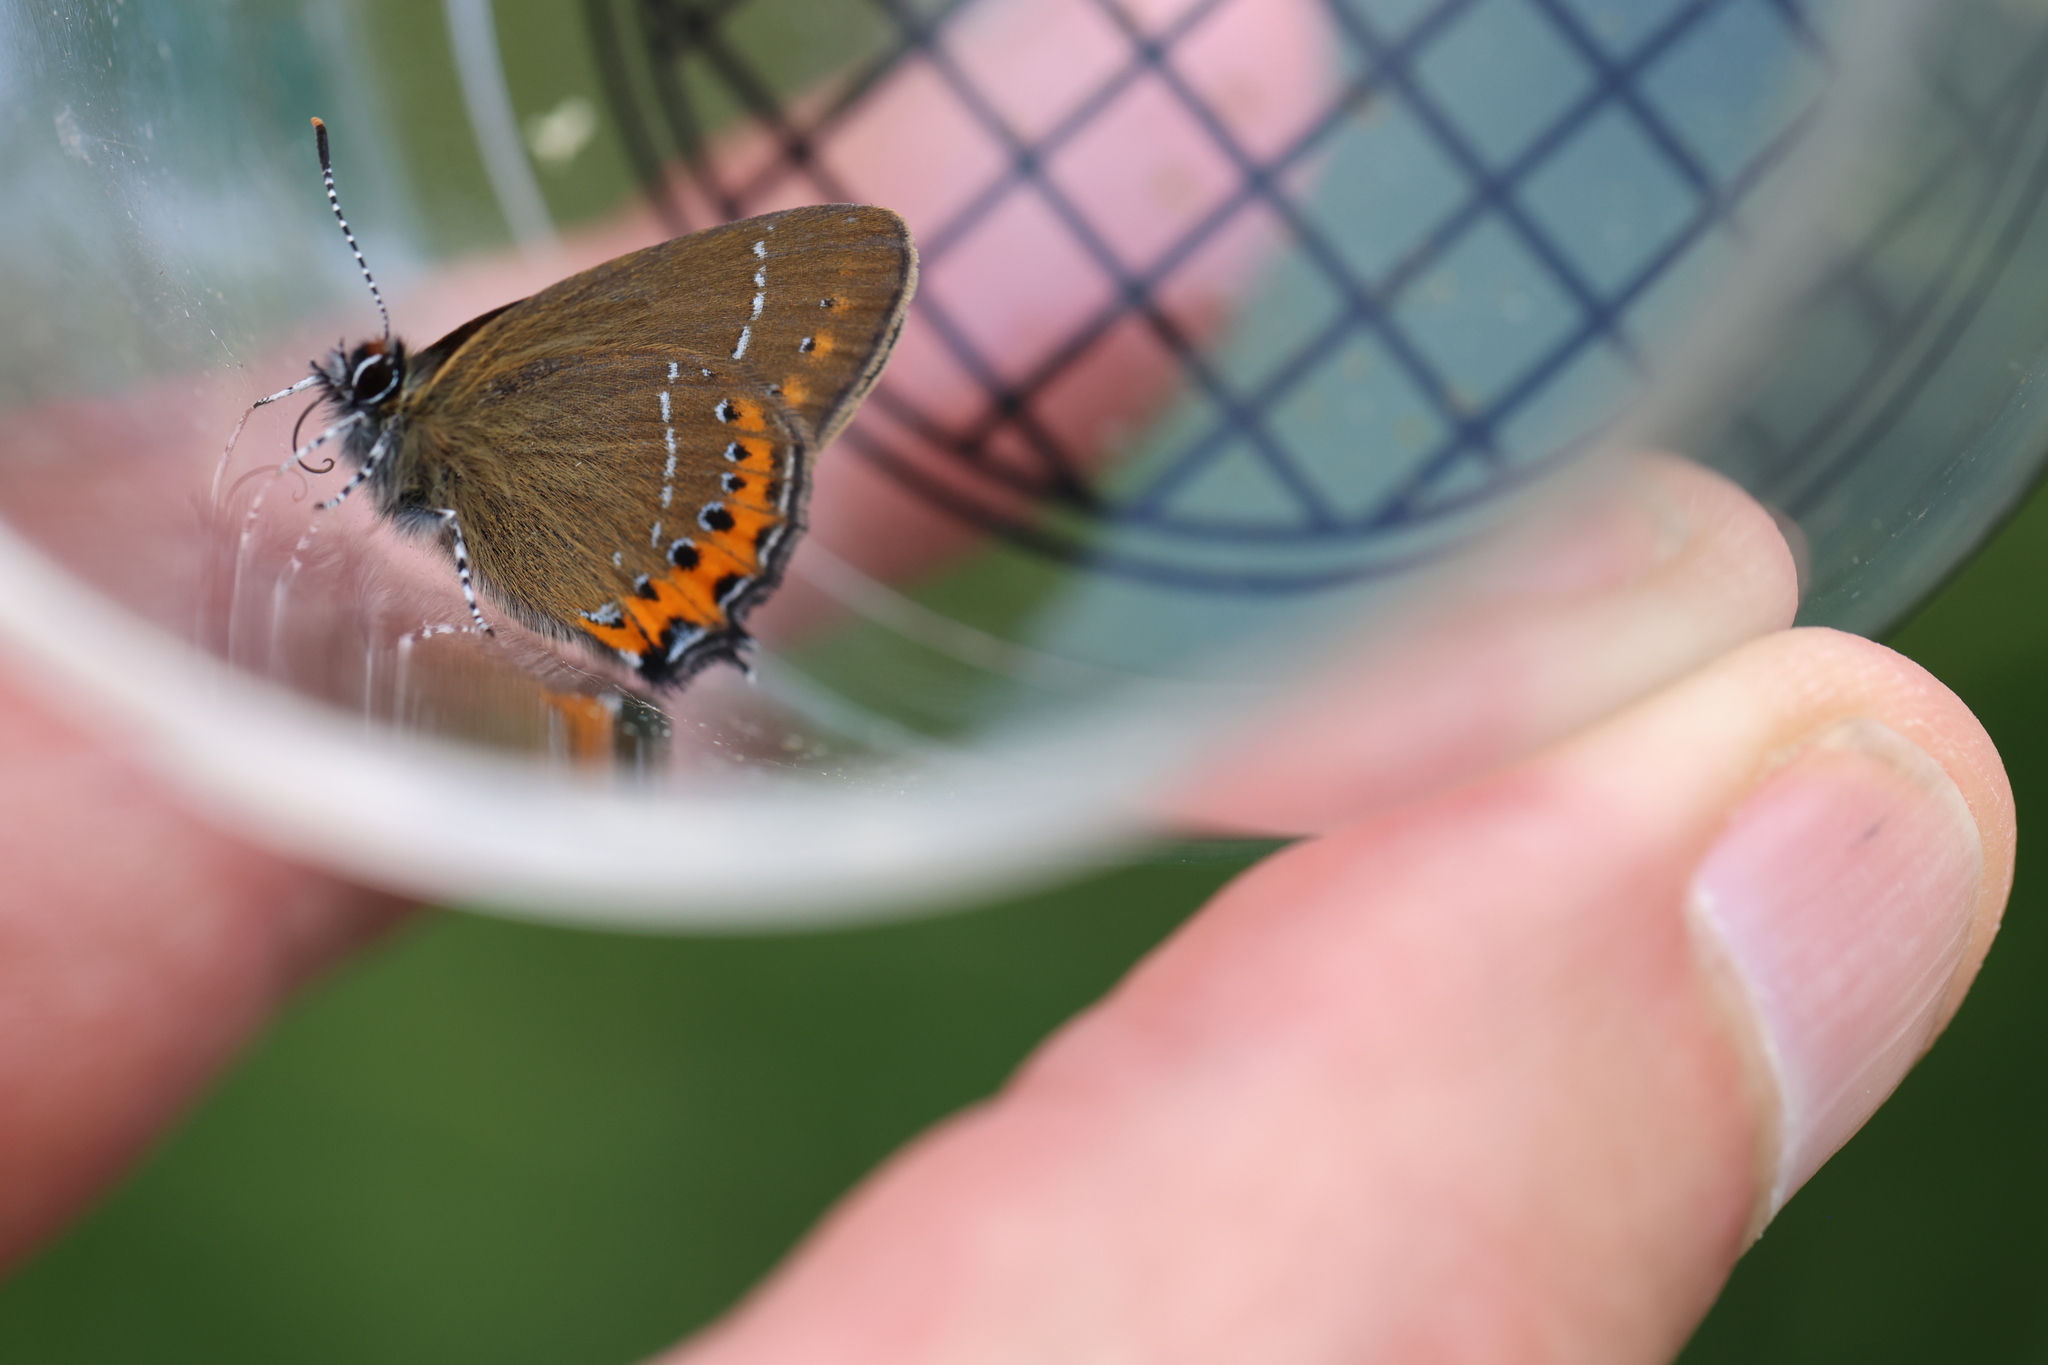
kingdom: Animalia
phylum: Arthropoda
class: Insecta
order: Lepidoptera
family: Lycaenidae
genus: Fixsenia
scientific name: Fixsenia pruni
